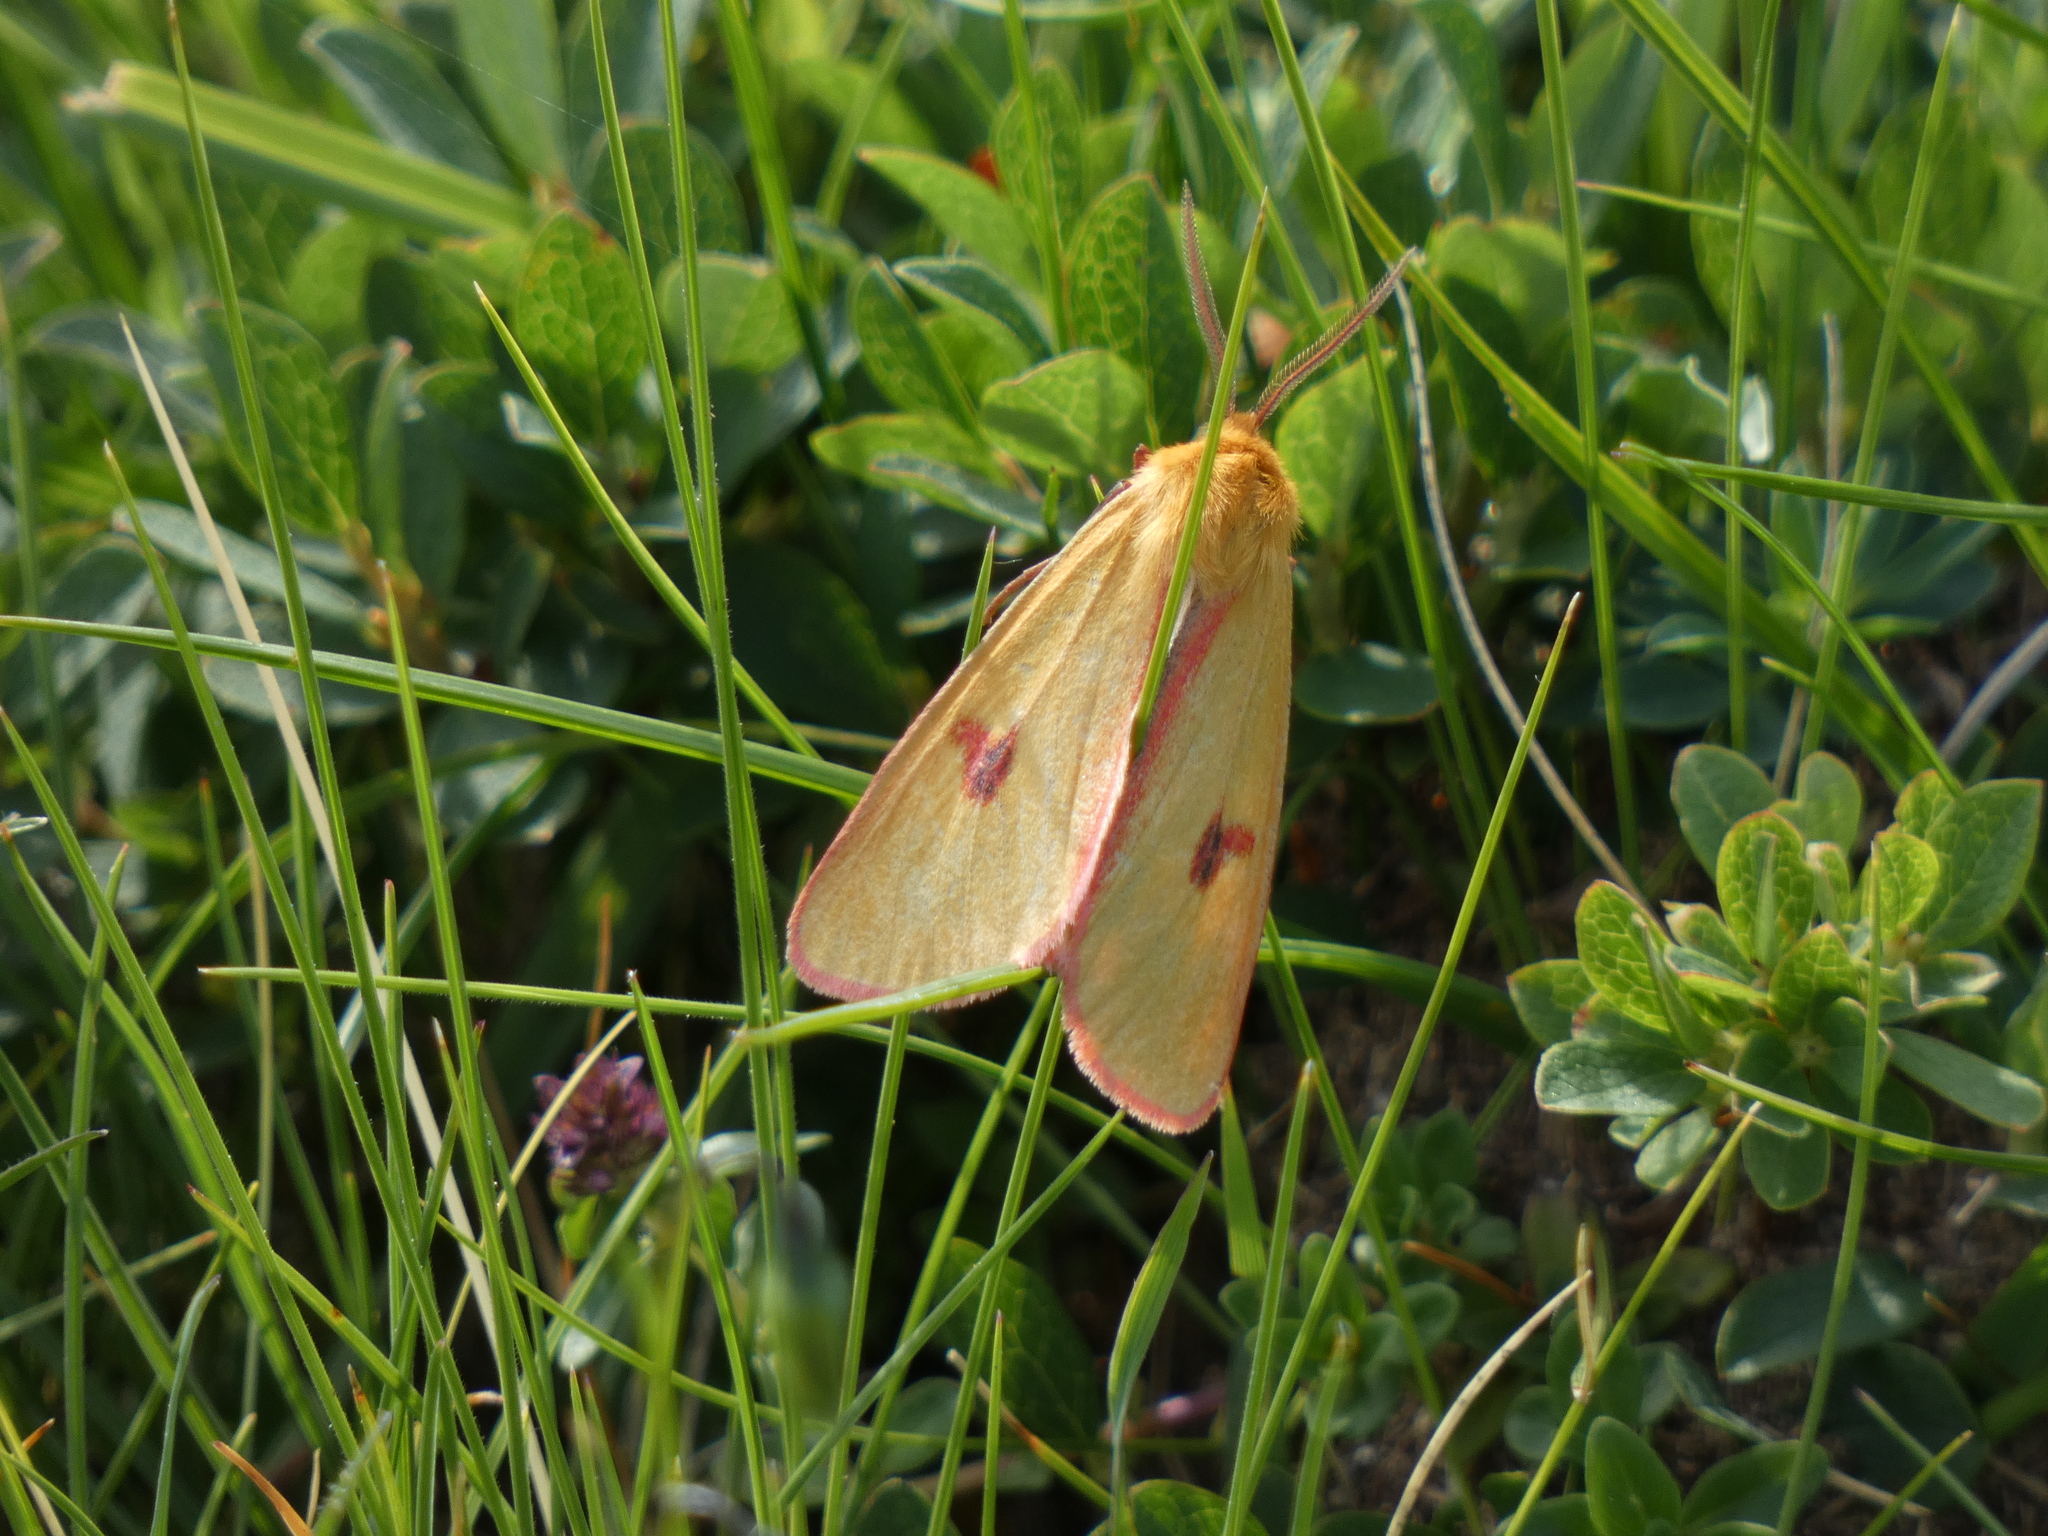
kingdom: Animalia
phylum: Arthropoda
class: Insecta
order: Lepidoptera
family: Erebidae
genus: Diacrisia
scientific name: Diacrisia sannio
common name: Clouded buff
